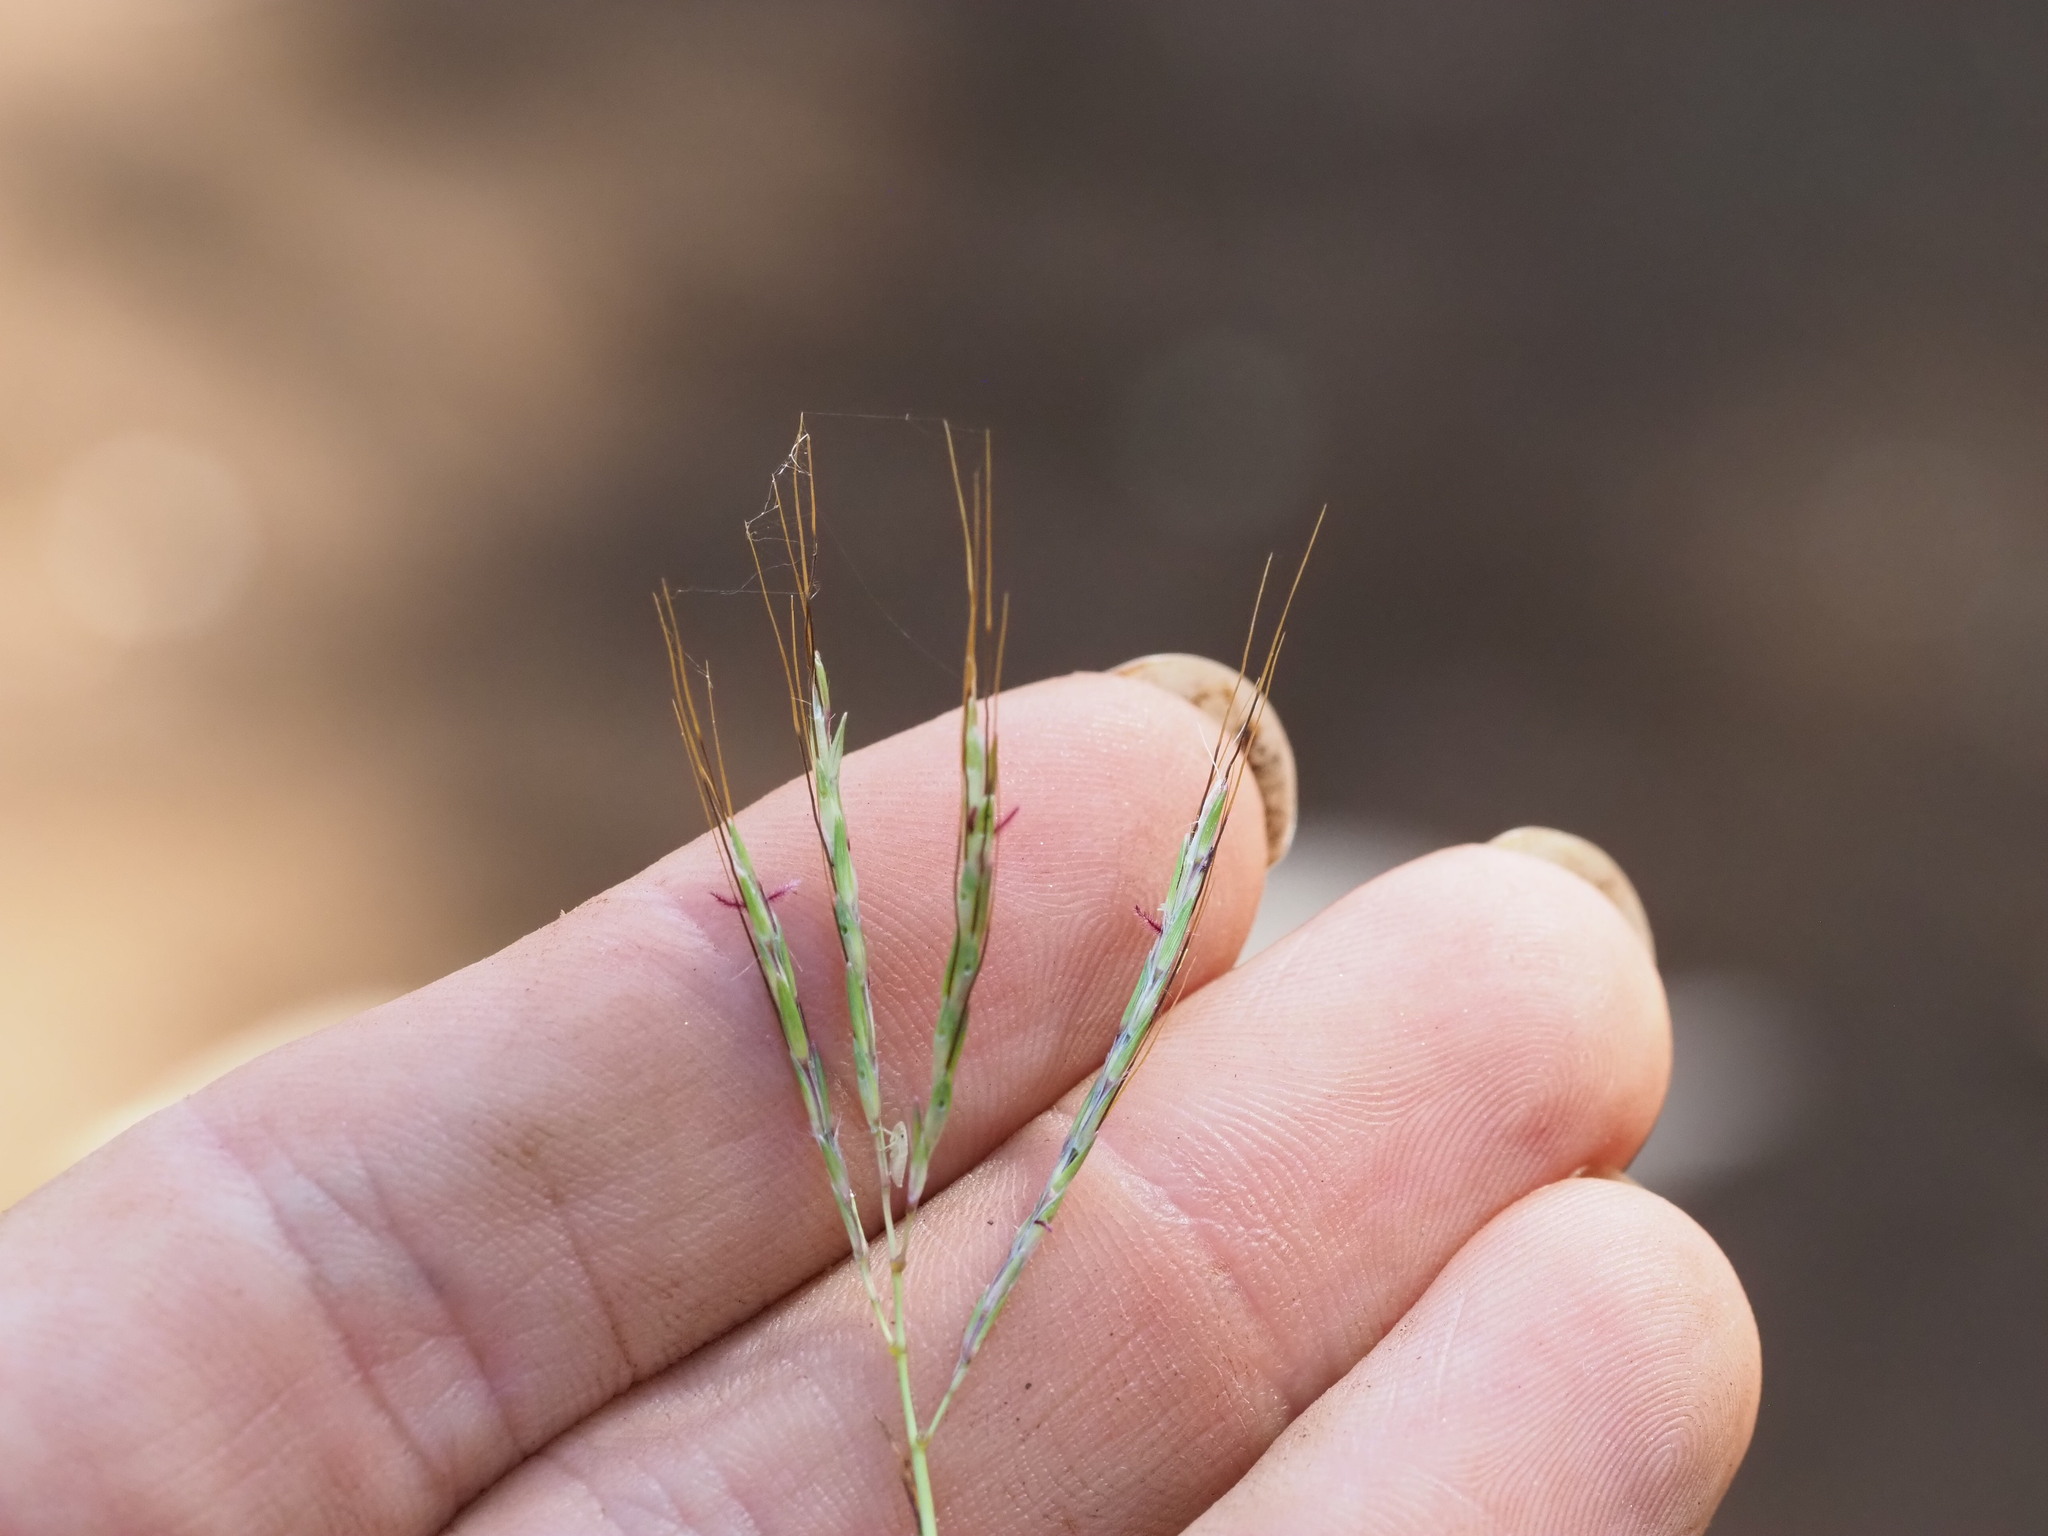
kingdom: Plantae
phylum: Tracheophyta
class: Liliopsida
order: Poales
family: Poaceae
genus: Bothriochloa
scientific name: Bothriochloa pertusa
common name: Pitted beardgrass
